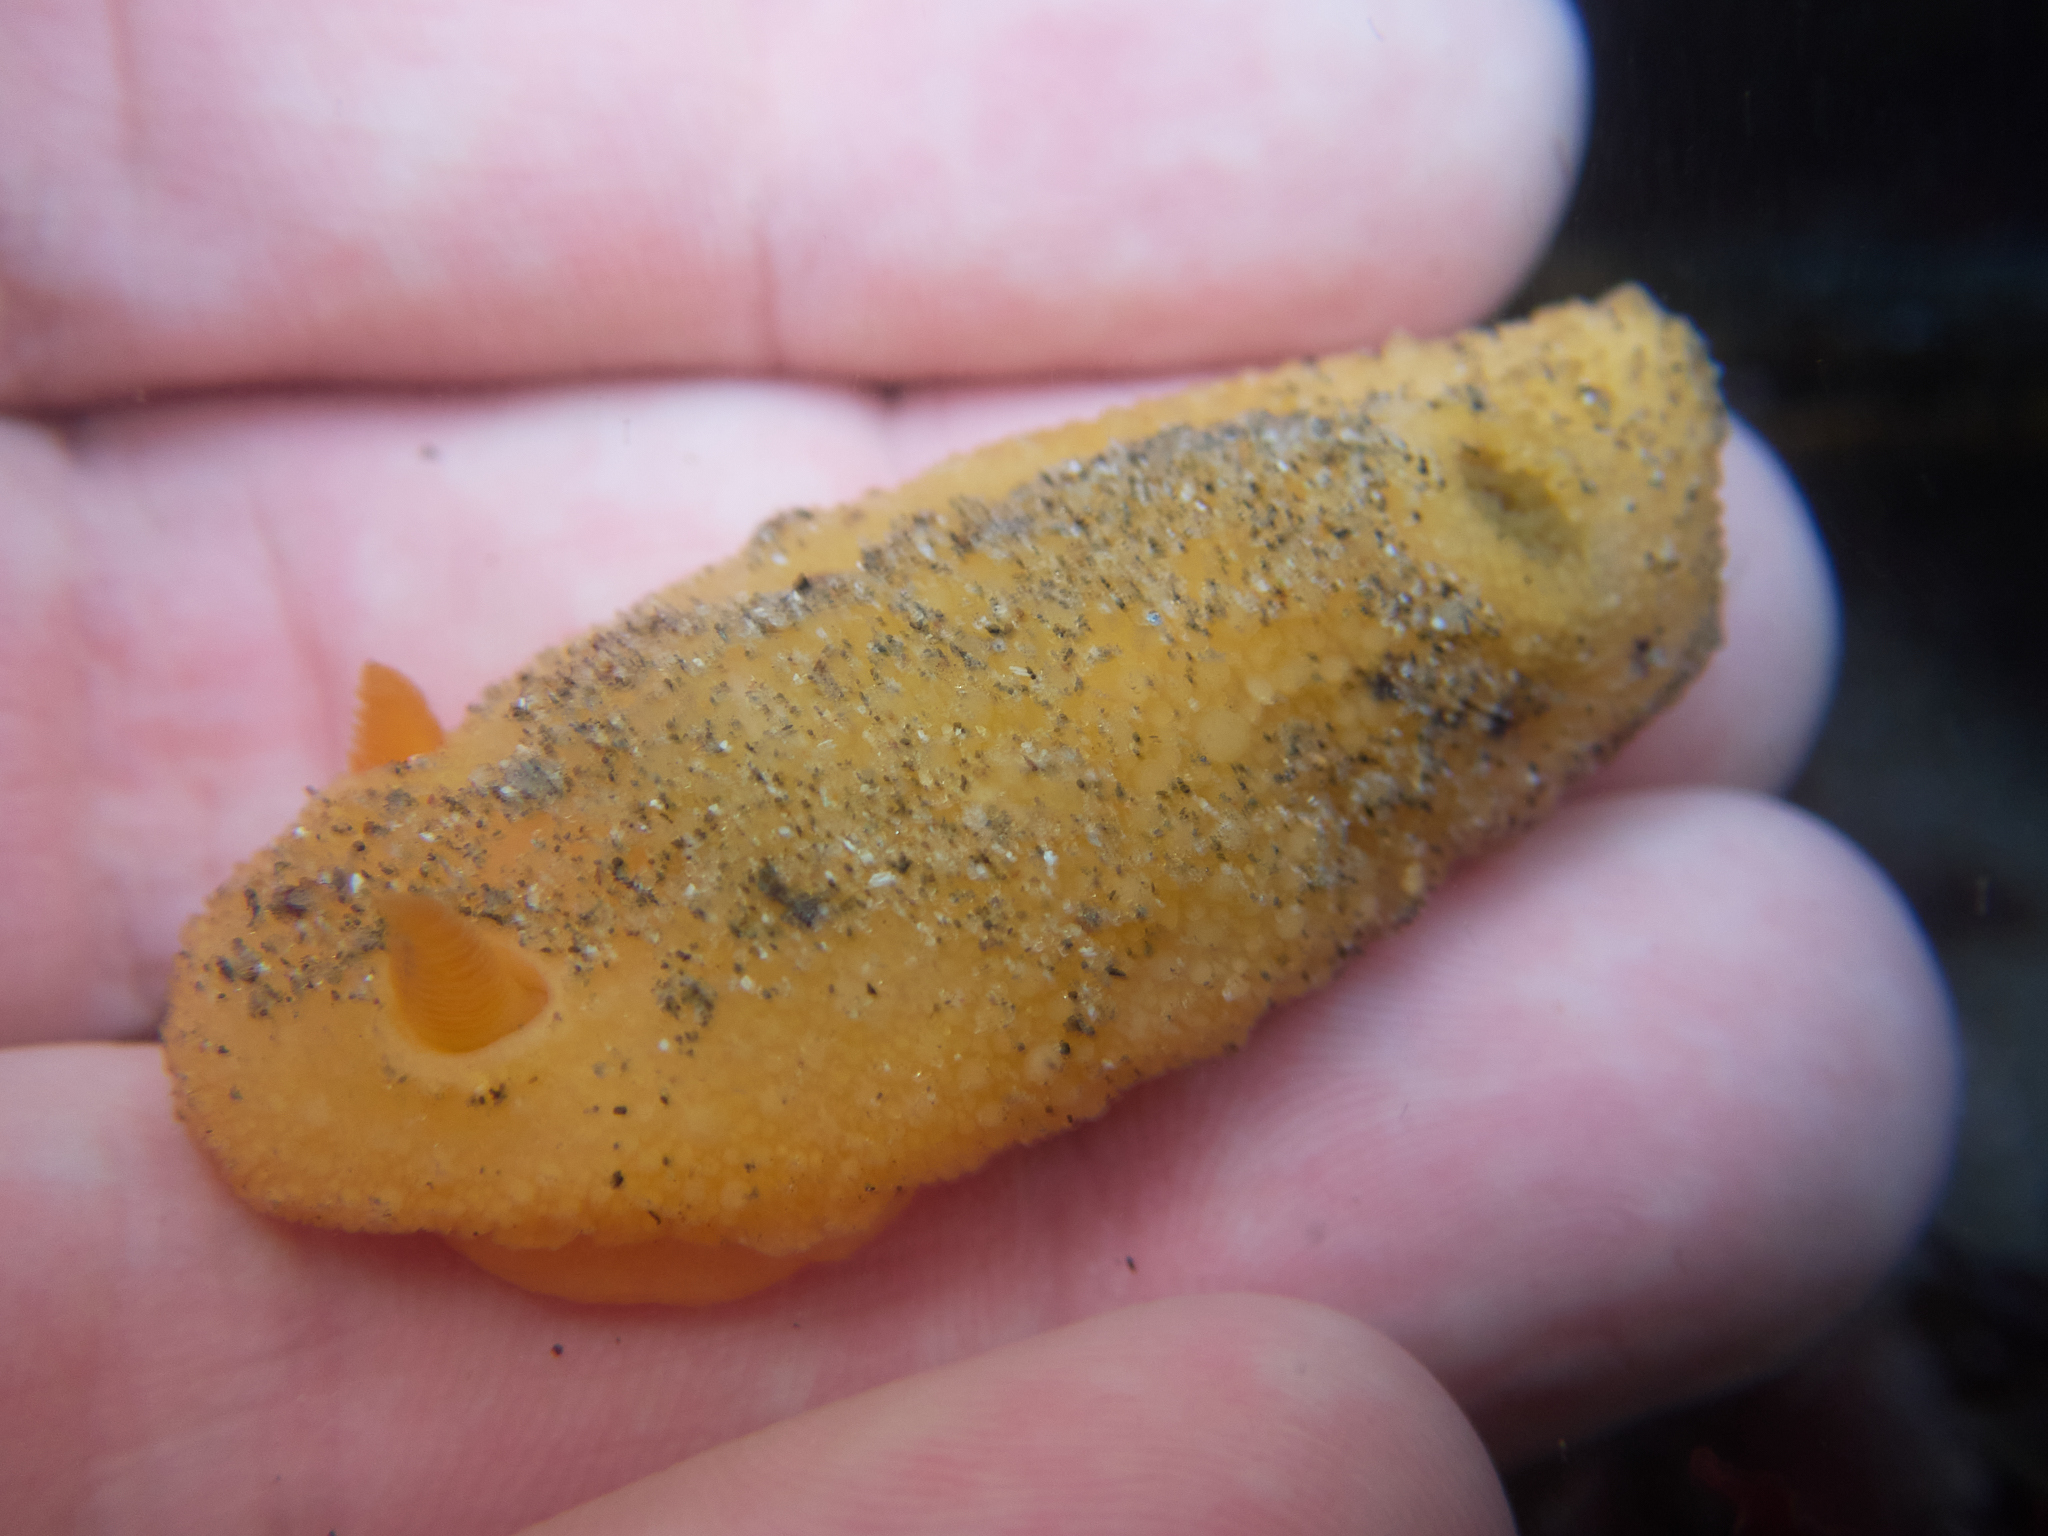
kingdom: Animalia
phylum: Mollusca
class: Gastropoda
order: Nudibranchia
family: Dorididae
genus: Doris
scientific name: Doris montereyensis
